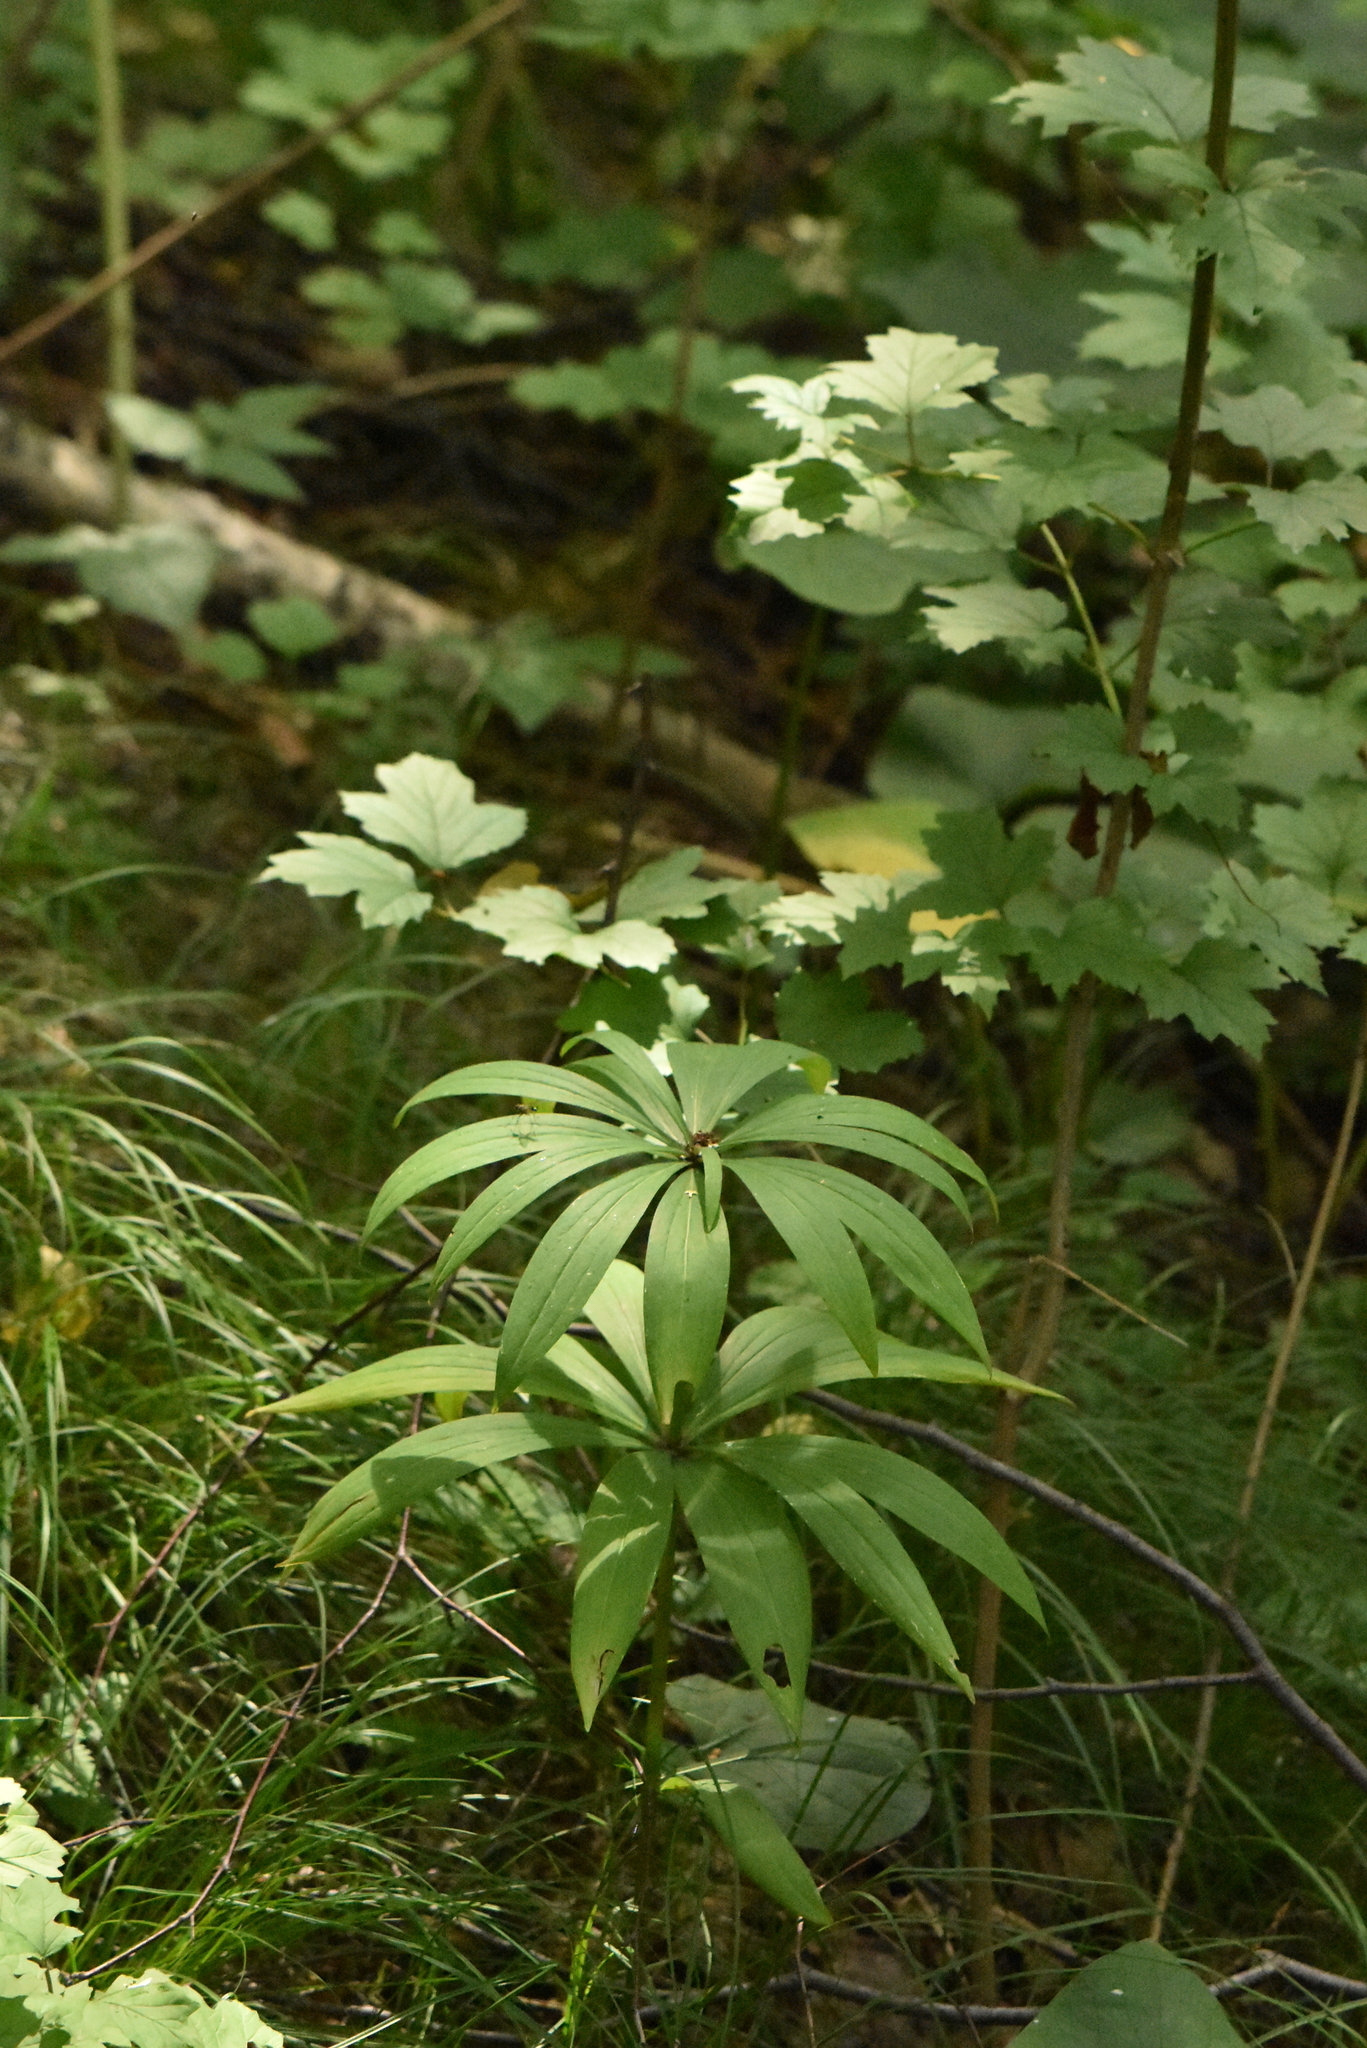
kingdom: Plantae
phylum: Tracheophyta
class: Liliopsida
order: Liliales
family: Liliaceae
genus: Lilium
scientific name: Lilium martagon
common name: Martagon lily
